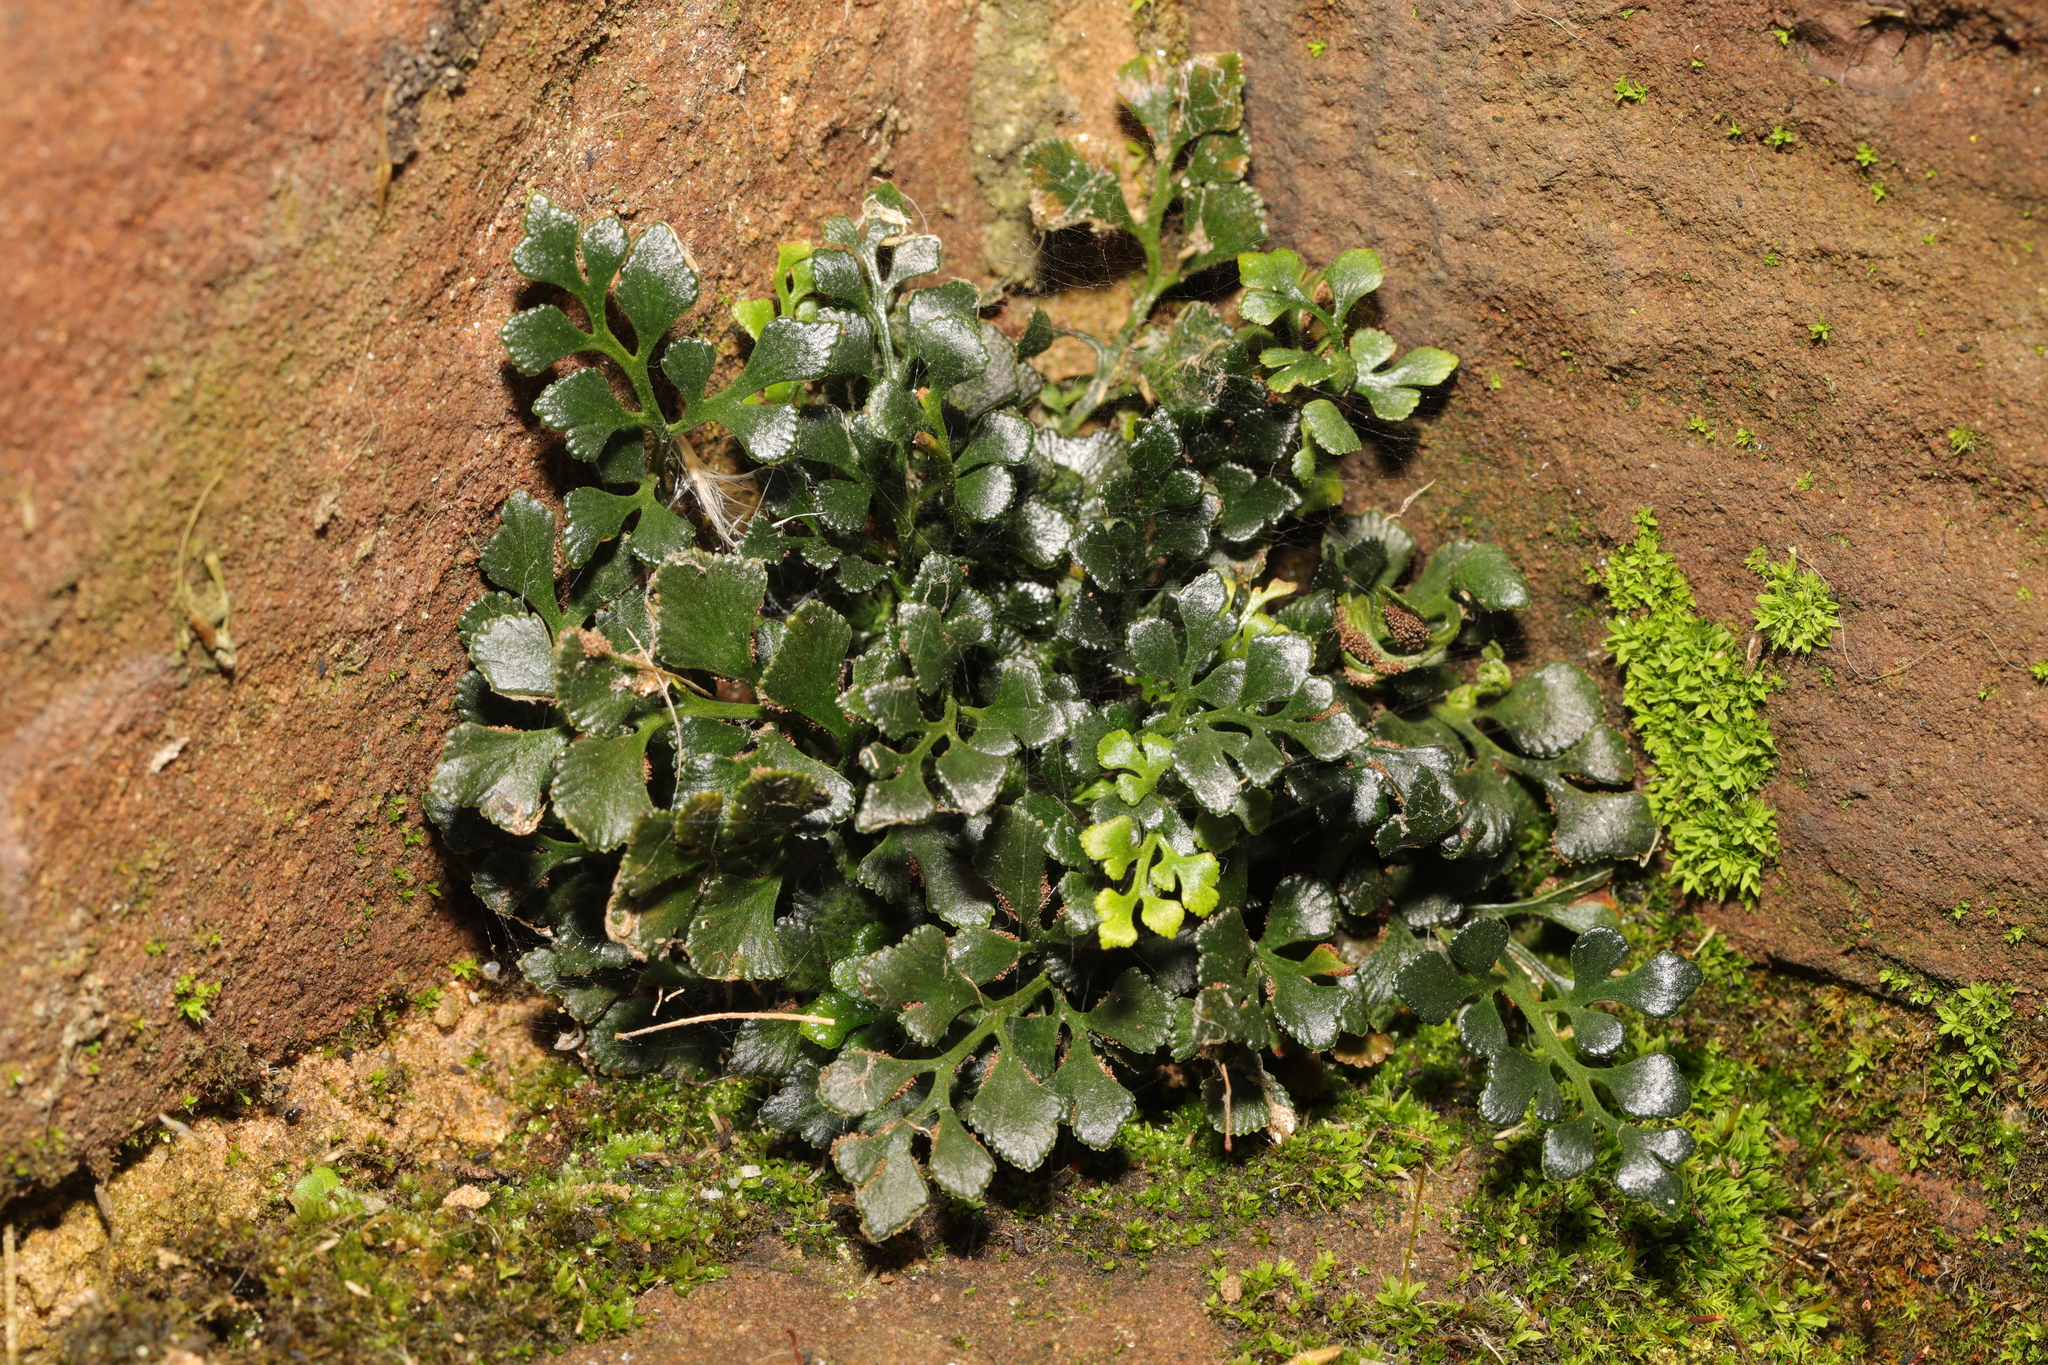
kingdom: Plantae
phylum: Tracheophyta
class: Polypodiopsida
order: Polypodiales
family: Aspleniaceae
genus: Asplenium
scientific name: Asplenium ruta-muraria
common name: Wall-rue
